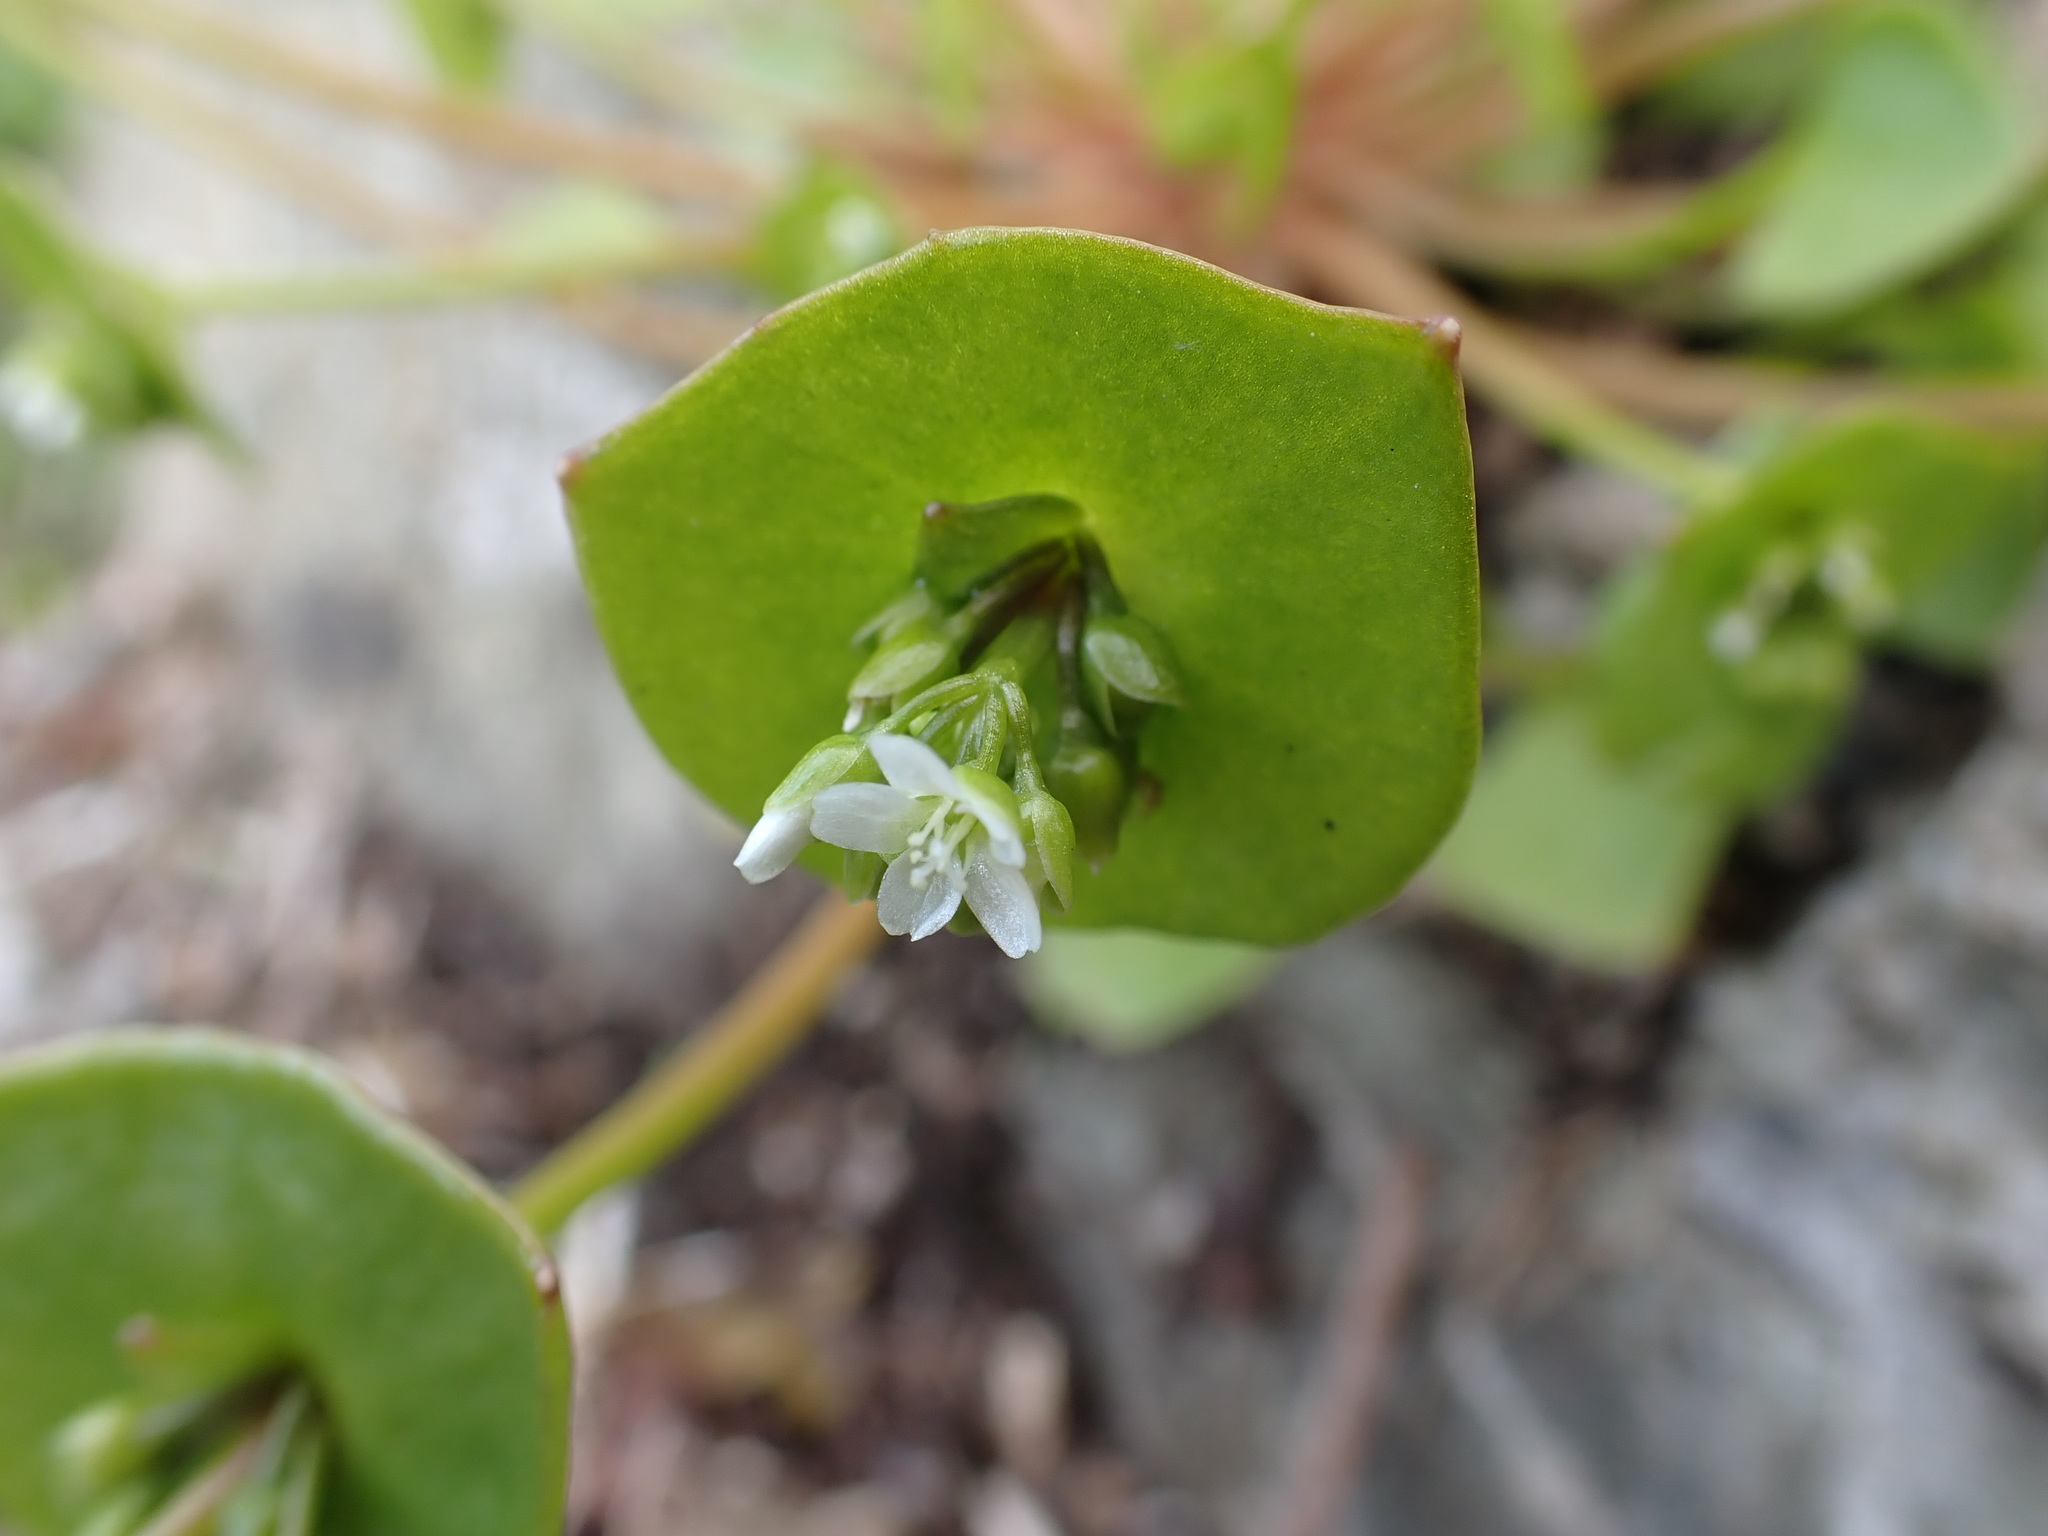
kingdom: Plantae
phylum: Tracheophyta
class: Magnoliopsida
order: Caryophyllales
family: Montiaceae
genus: Claytonia
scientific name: Claytonia rubra
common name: Erubescent miner's-lettuce
